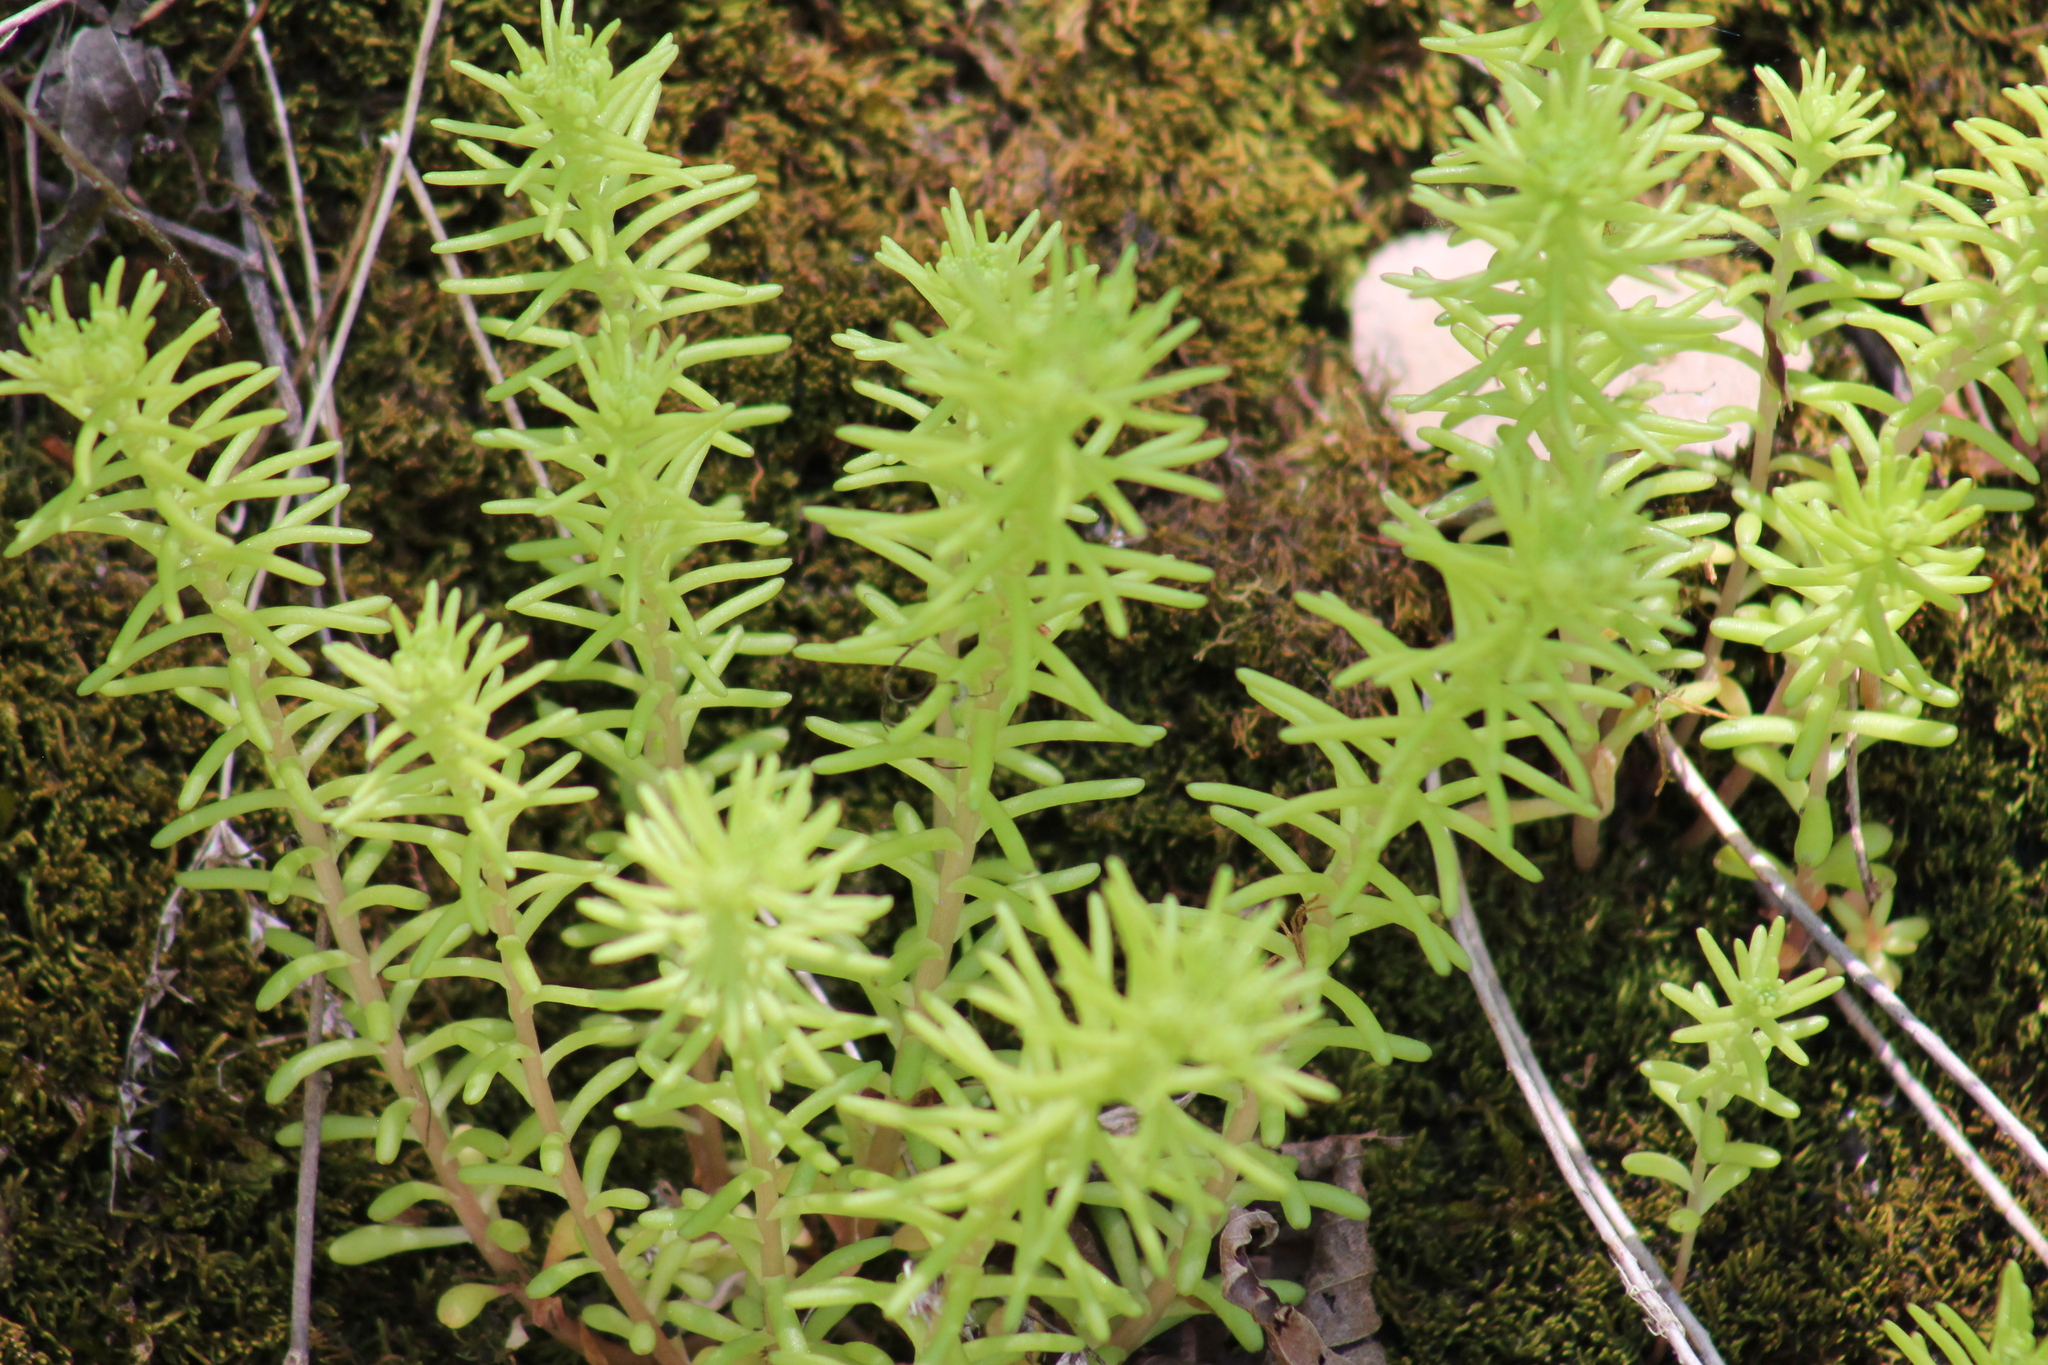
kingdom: Plantae
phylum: Tracheophyta
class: Magnoliopsida
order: Saxifragales
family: Crassulaceae
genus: Sedum
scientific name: Sedum pulchellum
